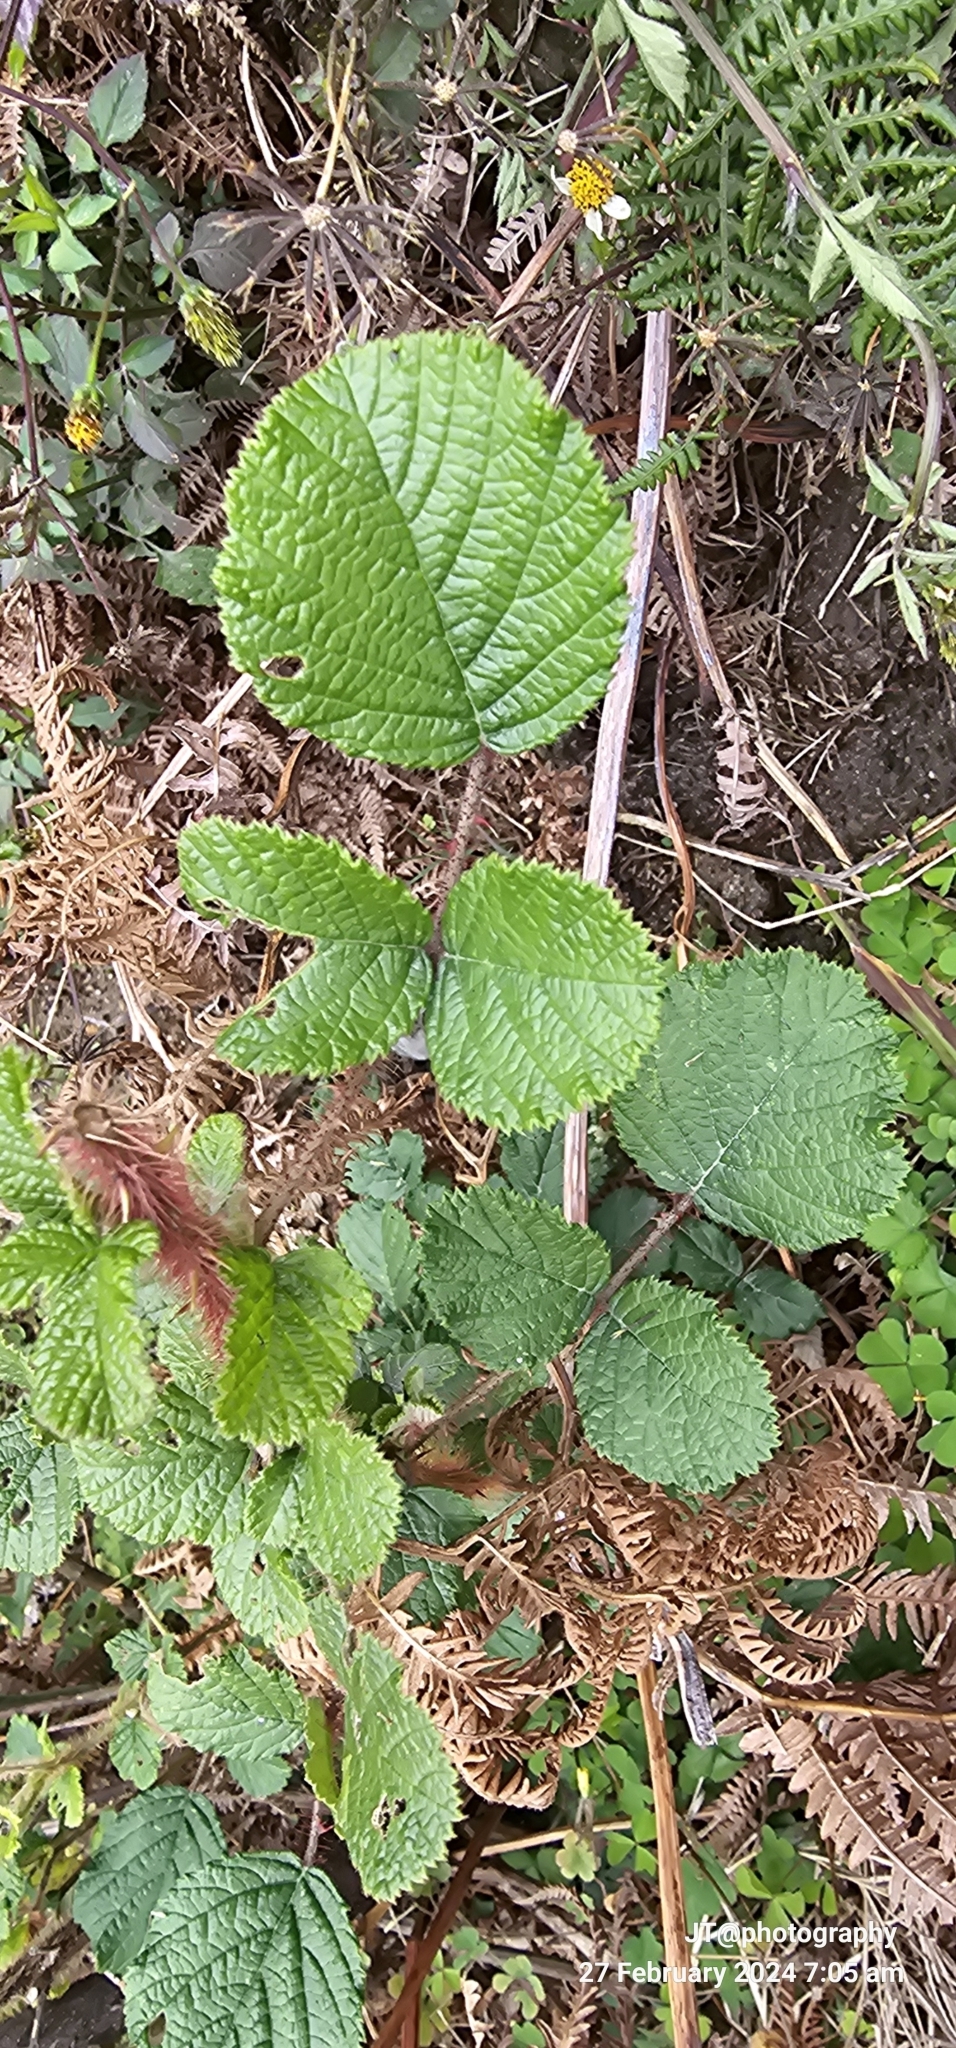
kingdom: Plantae
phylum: Tracheophyta
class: Magnoliopsida
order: Rosales
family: Rosaceae
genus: Rubus
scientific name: Rubus ellipticus
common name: Cheeseberry
